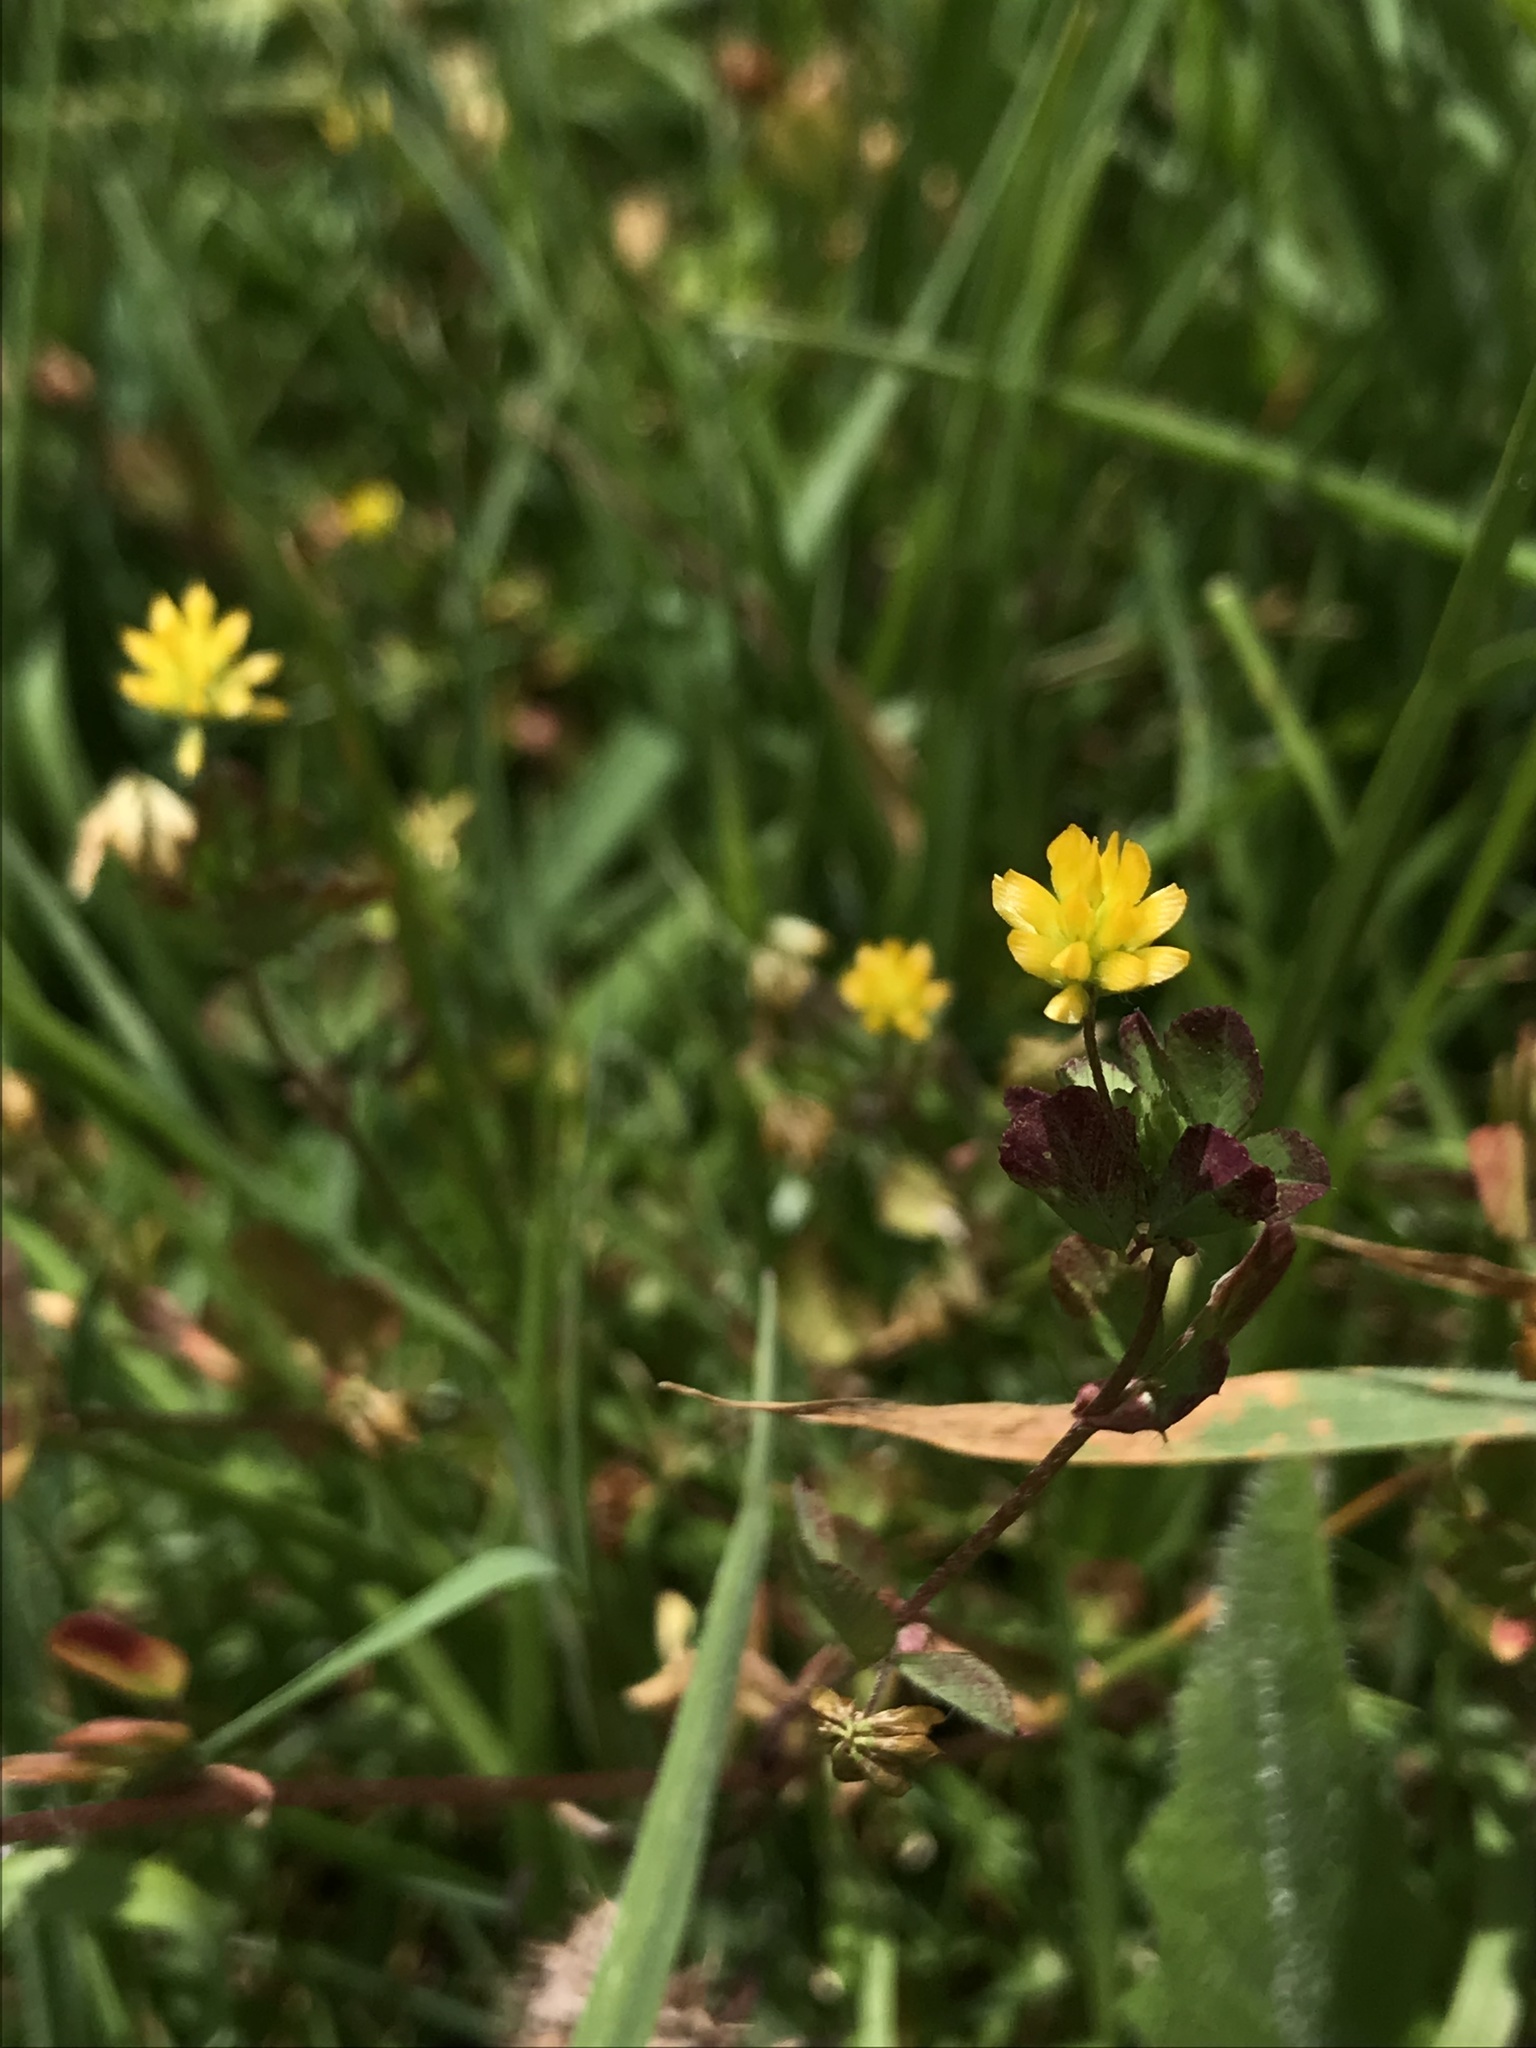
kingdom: Plantae
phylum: Tracheophyta
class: Magnoliopsida
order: Fabales
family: Fabaceae
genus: Trifolium
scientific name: Trifolium dubium
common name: Suckling clover
